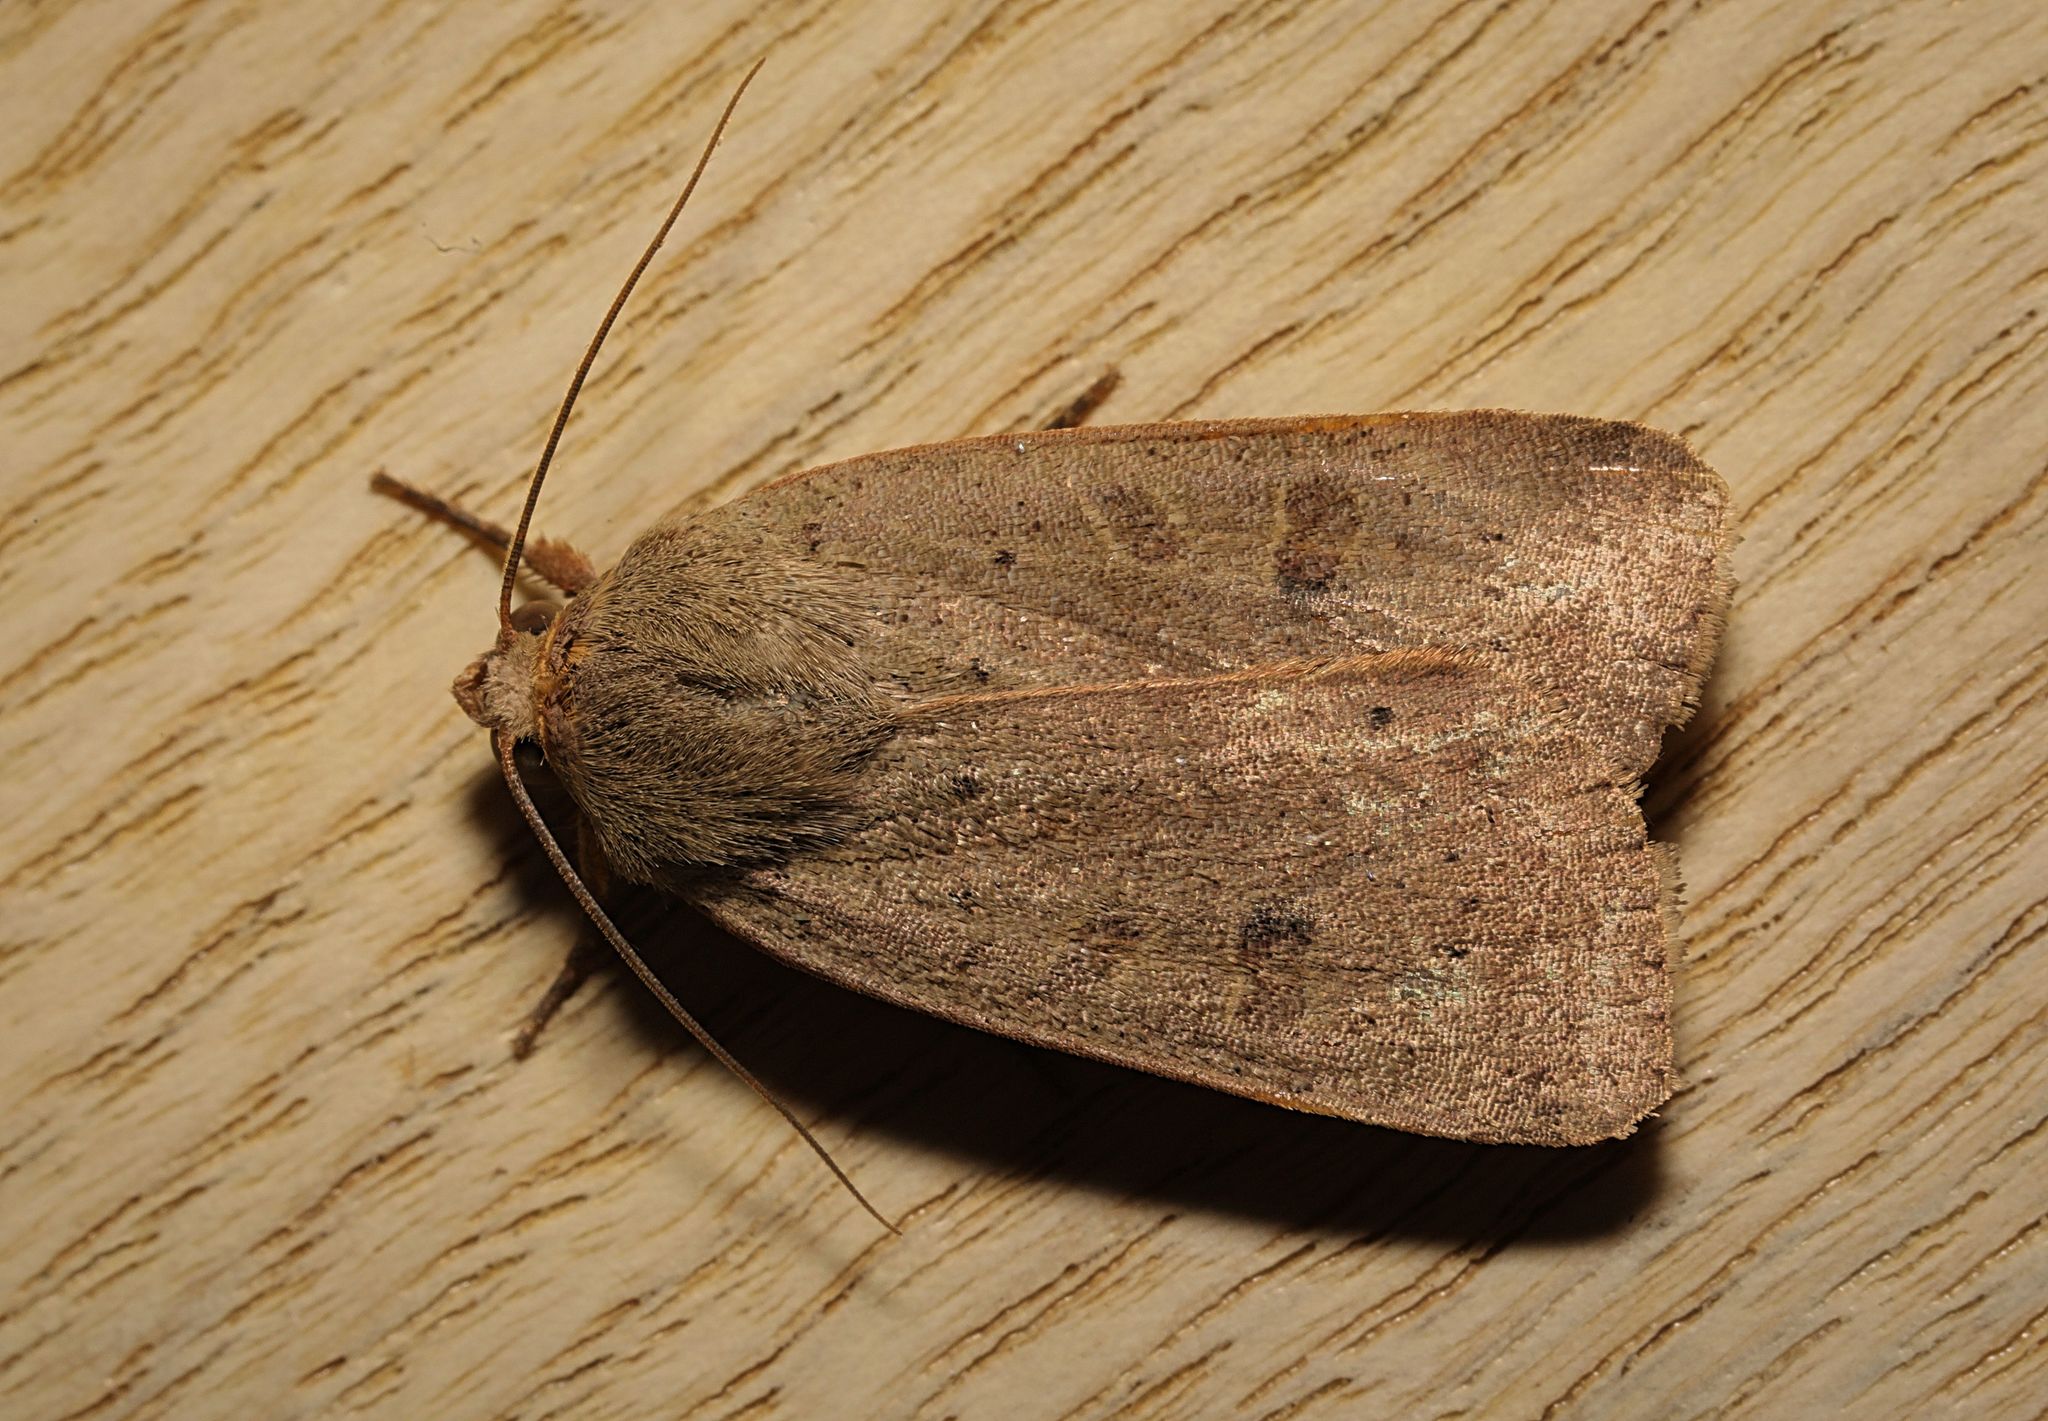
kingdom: Animalia
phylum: Arthropoda
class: Insecta
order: Lepidoptera
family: Noctuidae
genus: Noctua
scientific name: Noctua comes
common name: Lesser yellow underwing
